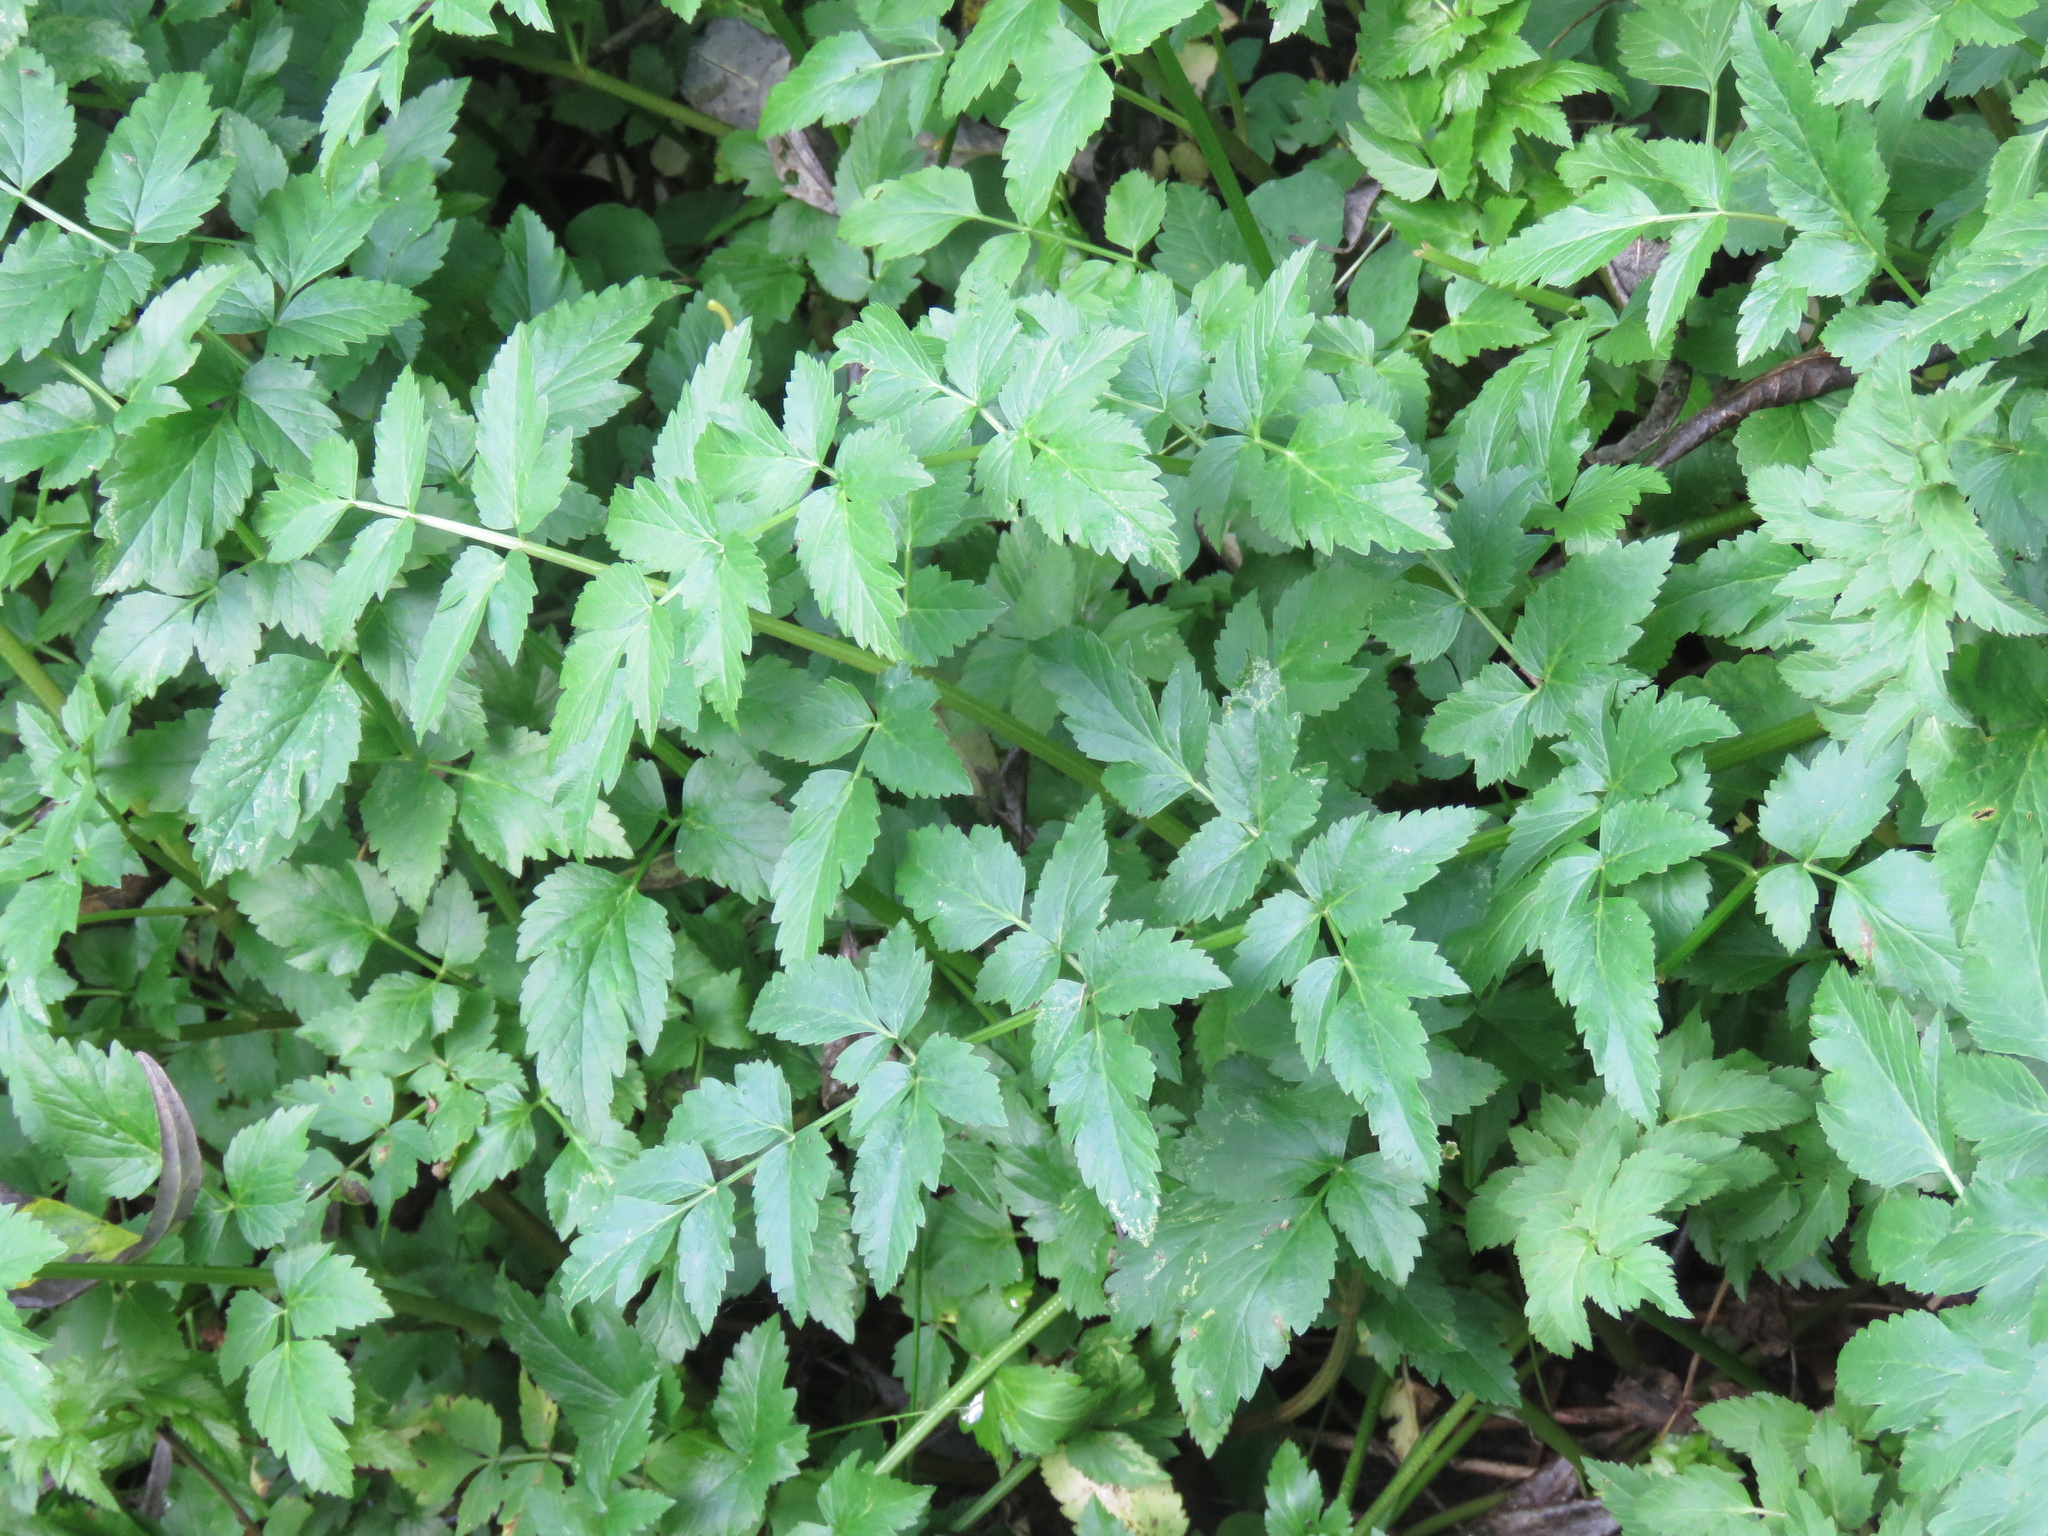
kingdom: Plantae
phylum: Tracheophyta
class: Magnoliopsida
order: Apiales
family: Apiaceae
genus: Oenanthe
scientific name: Oenanthe sarmentosa
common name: American water-parsley
